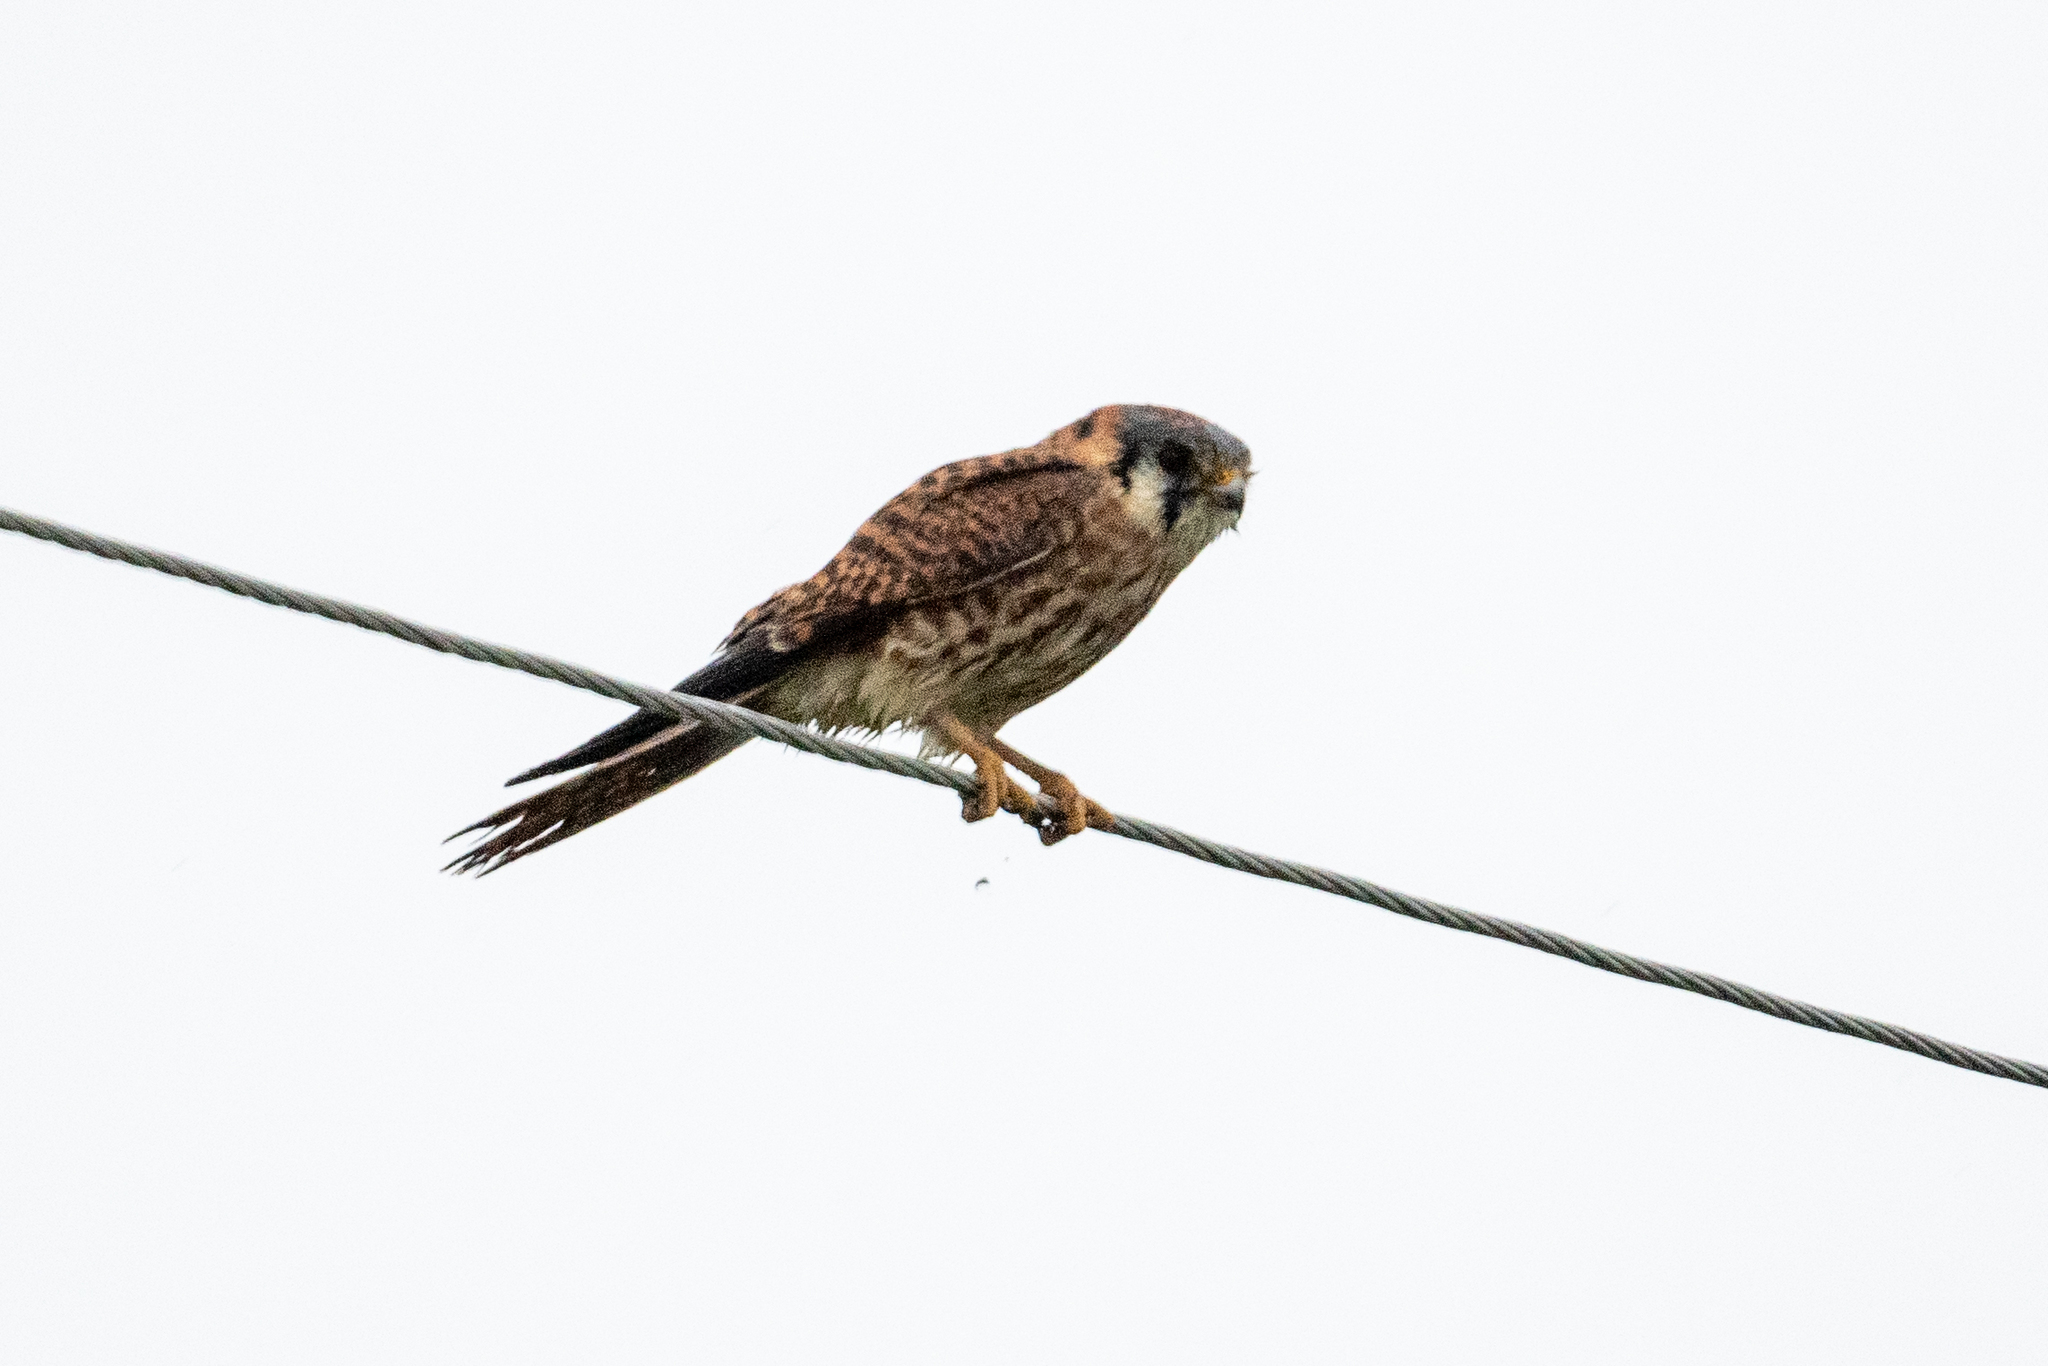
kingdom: Animalia
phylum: Chordata
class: Aves
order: Falconiformes
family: Falconidae
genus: Falco
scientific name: Falco sparverius
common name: American kestrel
